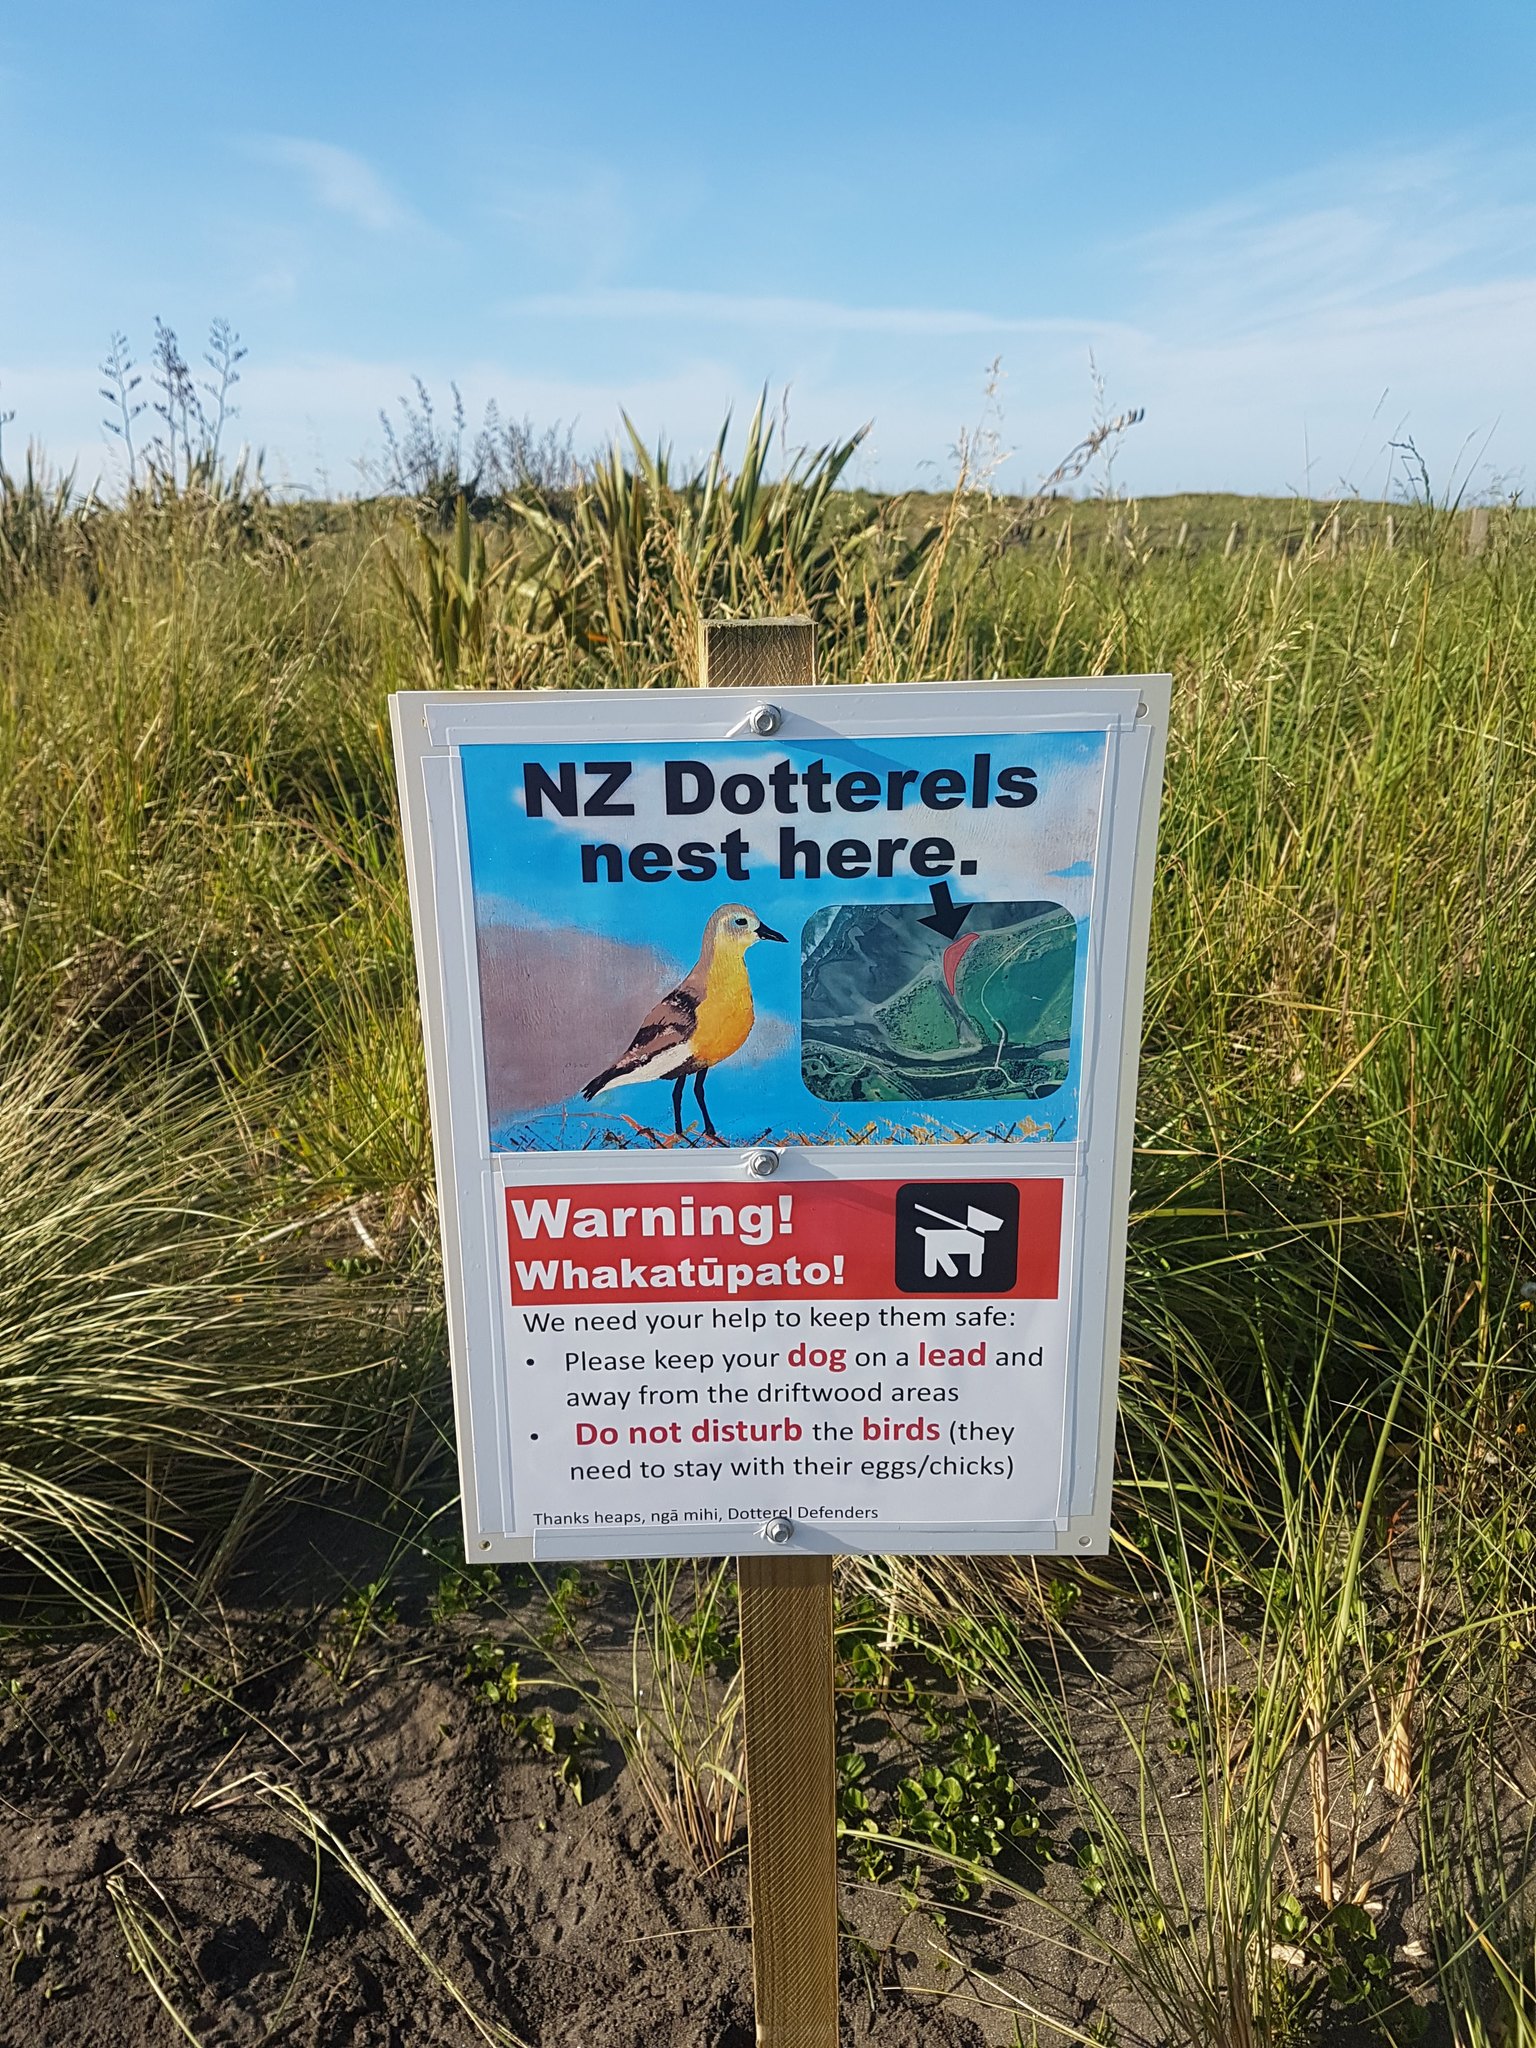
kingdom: Animalia
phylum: Chordata
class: Aves
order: Charadriiformes
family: Charadriidae
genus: Anarhynchus
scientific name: Anarhynchus
